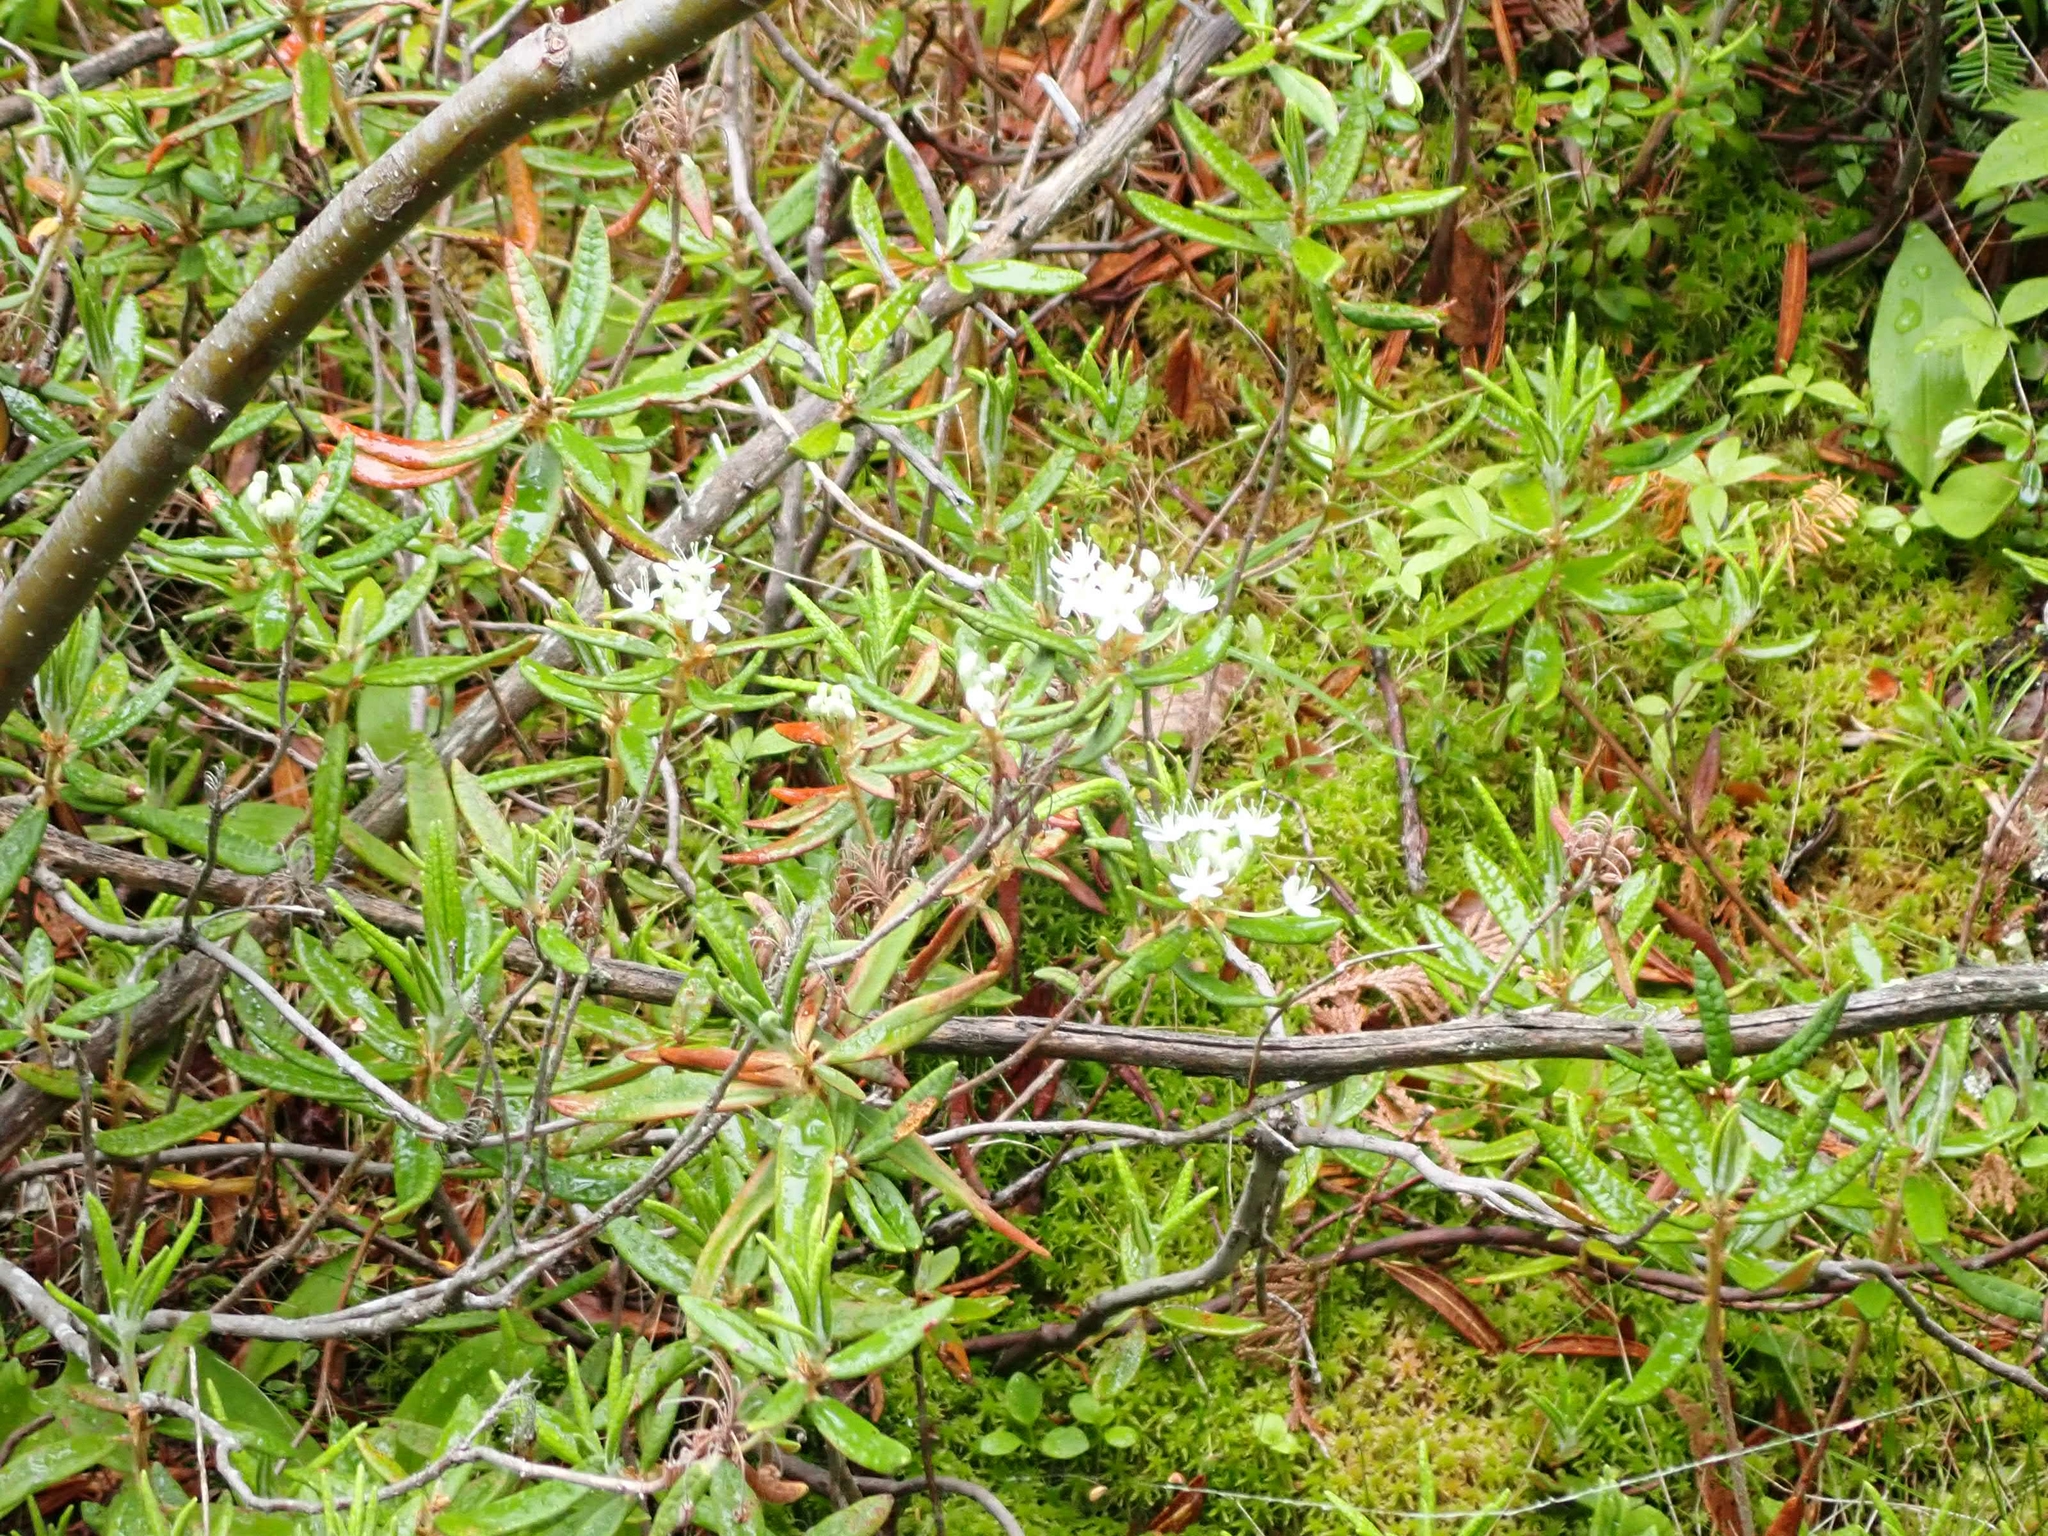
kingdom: Plantae
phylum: Tracheophyta
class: Magnoliopsida
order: Ericales
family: Ericaceae
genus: Rhododendron
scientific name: Rhododendron groenlandicum
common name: Bog labrador tea
